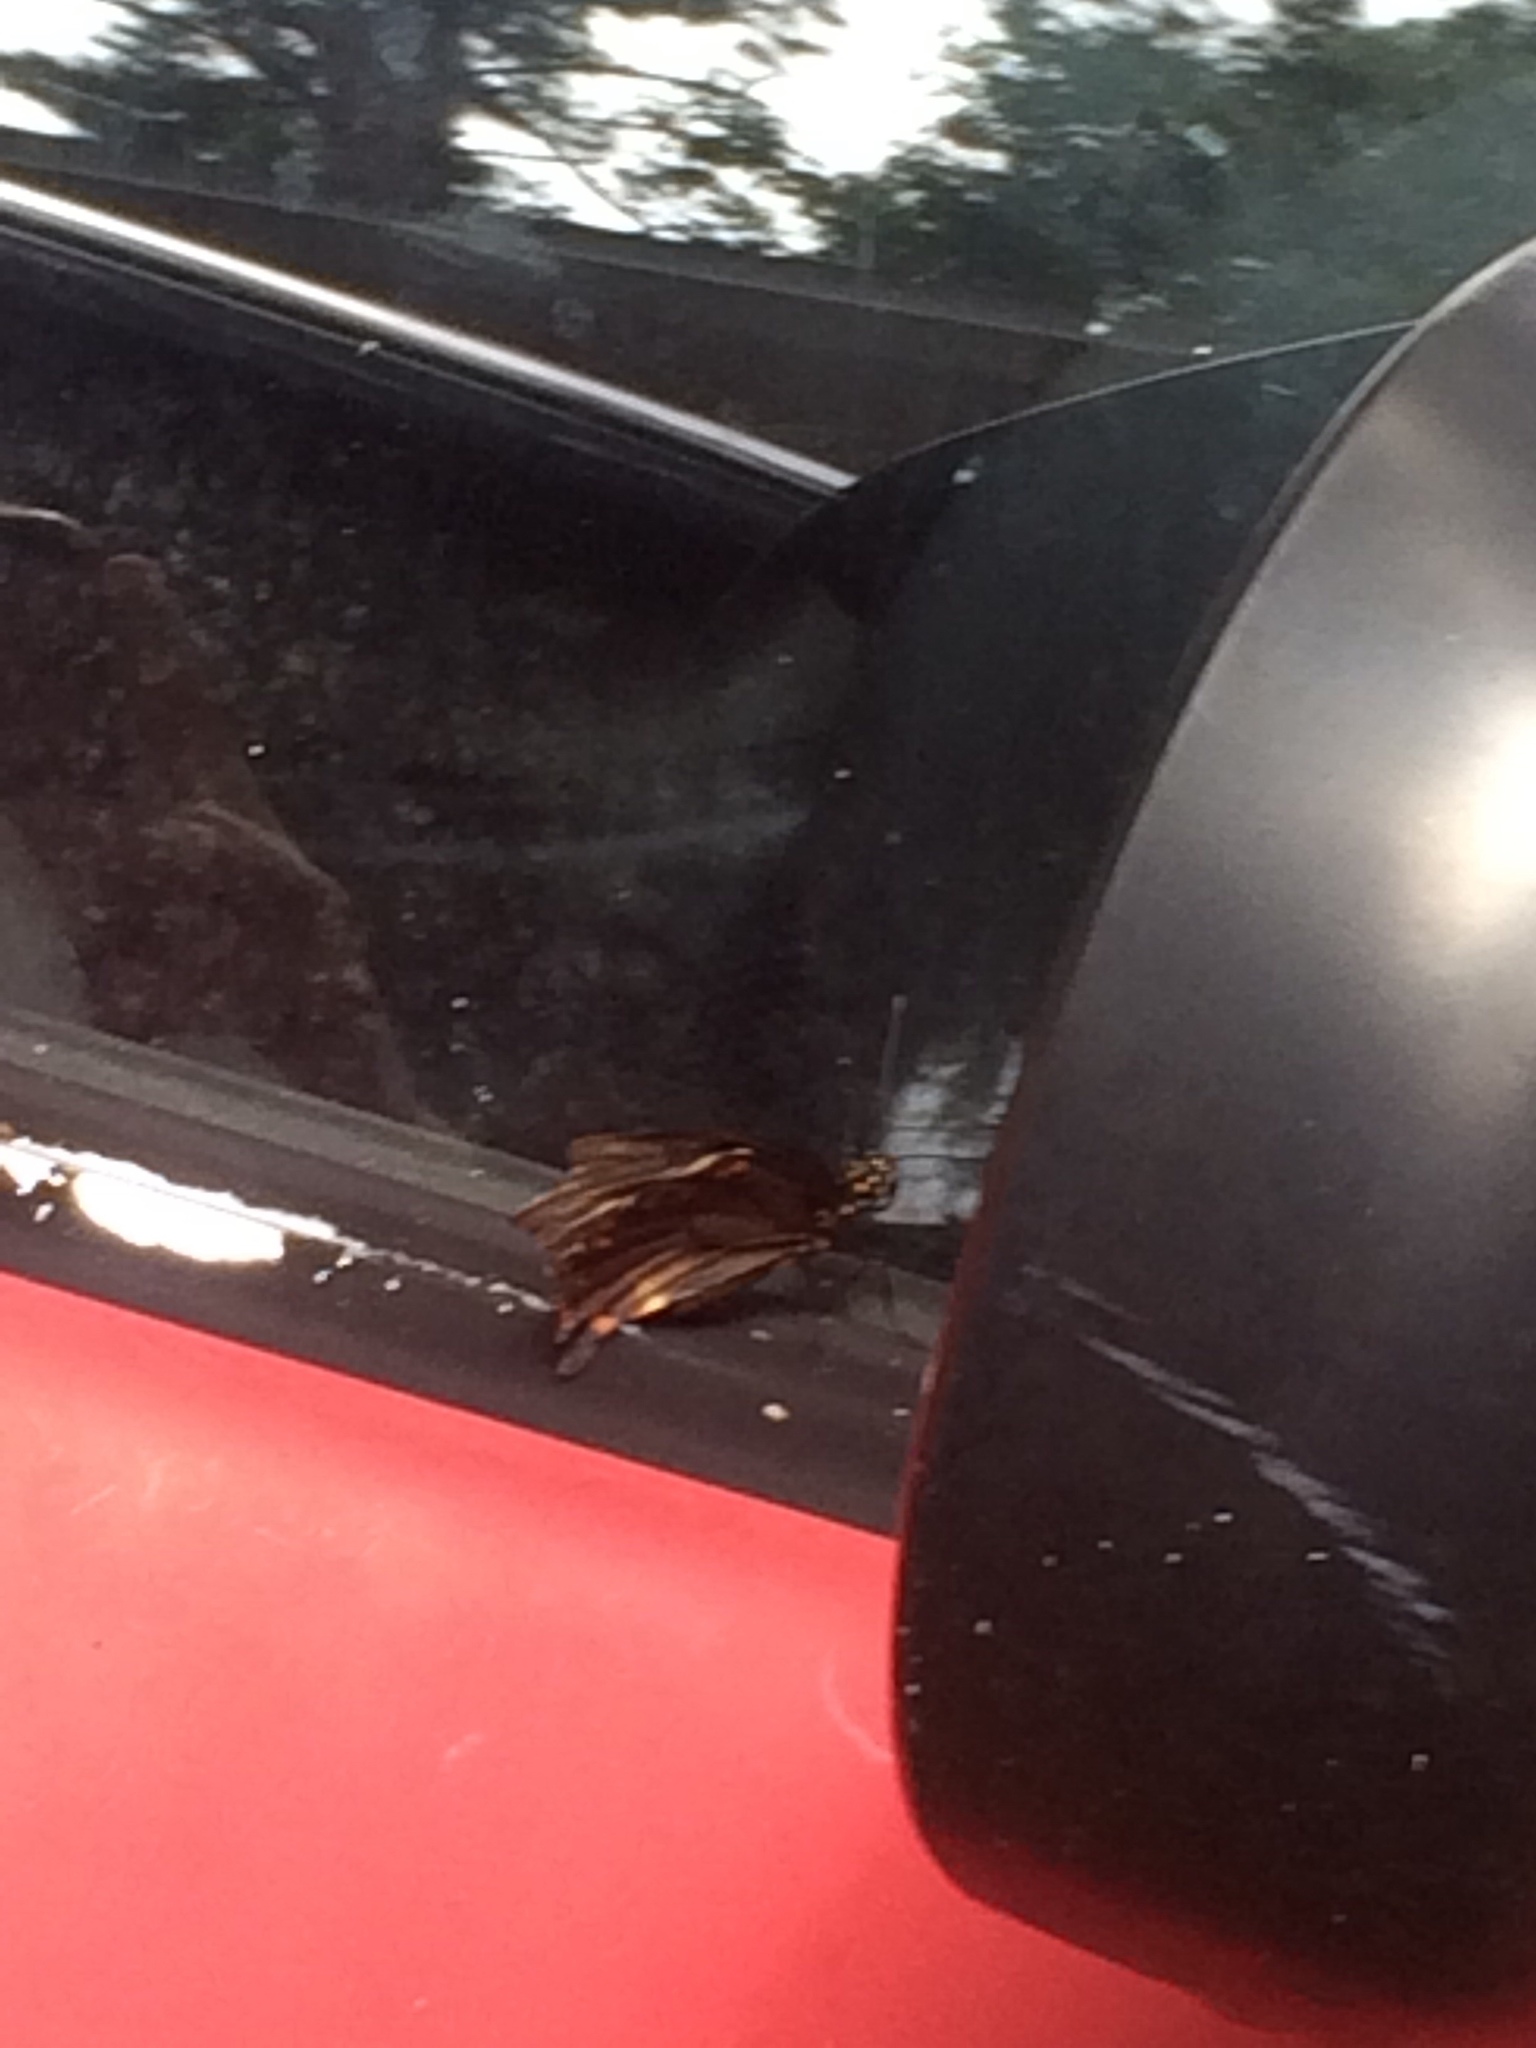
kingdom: Animalia
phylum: Arthropoda
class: Insecta
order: Lepidoptera
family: Papilionidae
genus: Battus
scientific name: Battus polydamas
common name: Polydamas swallowtail
